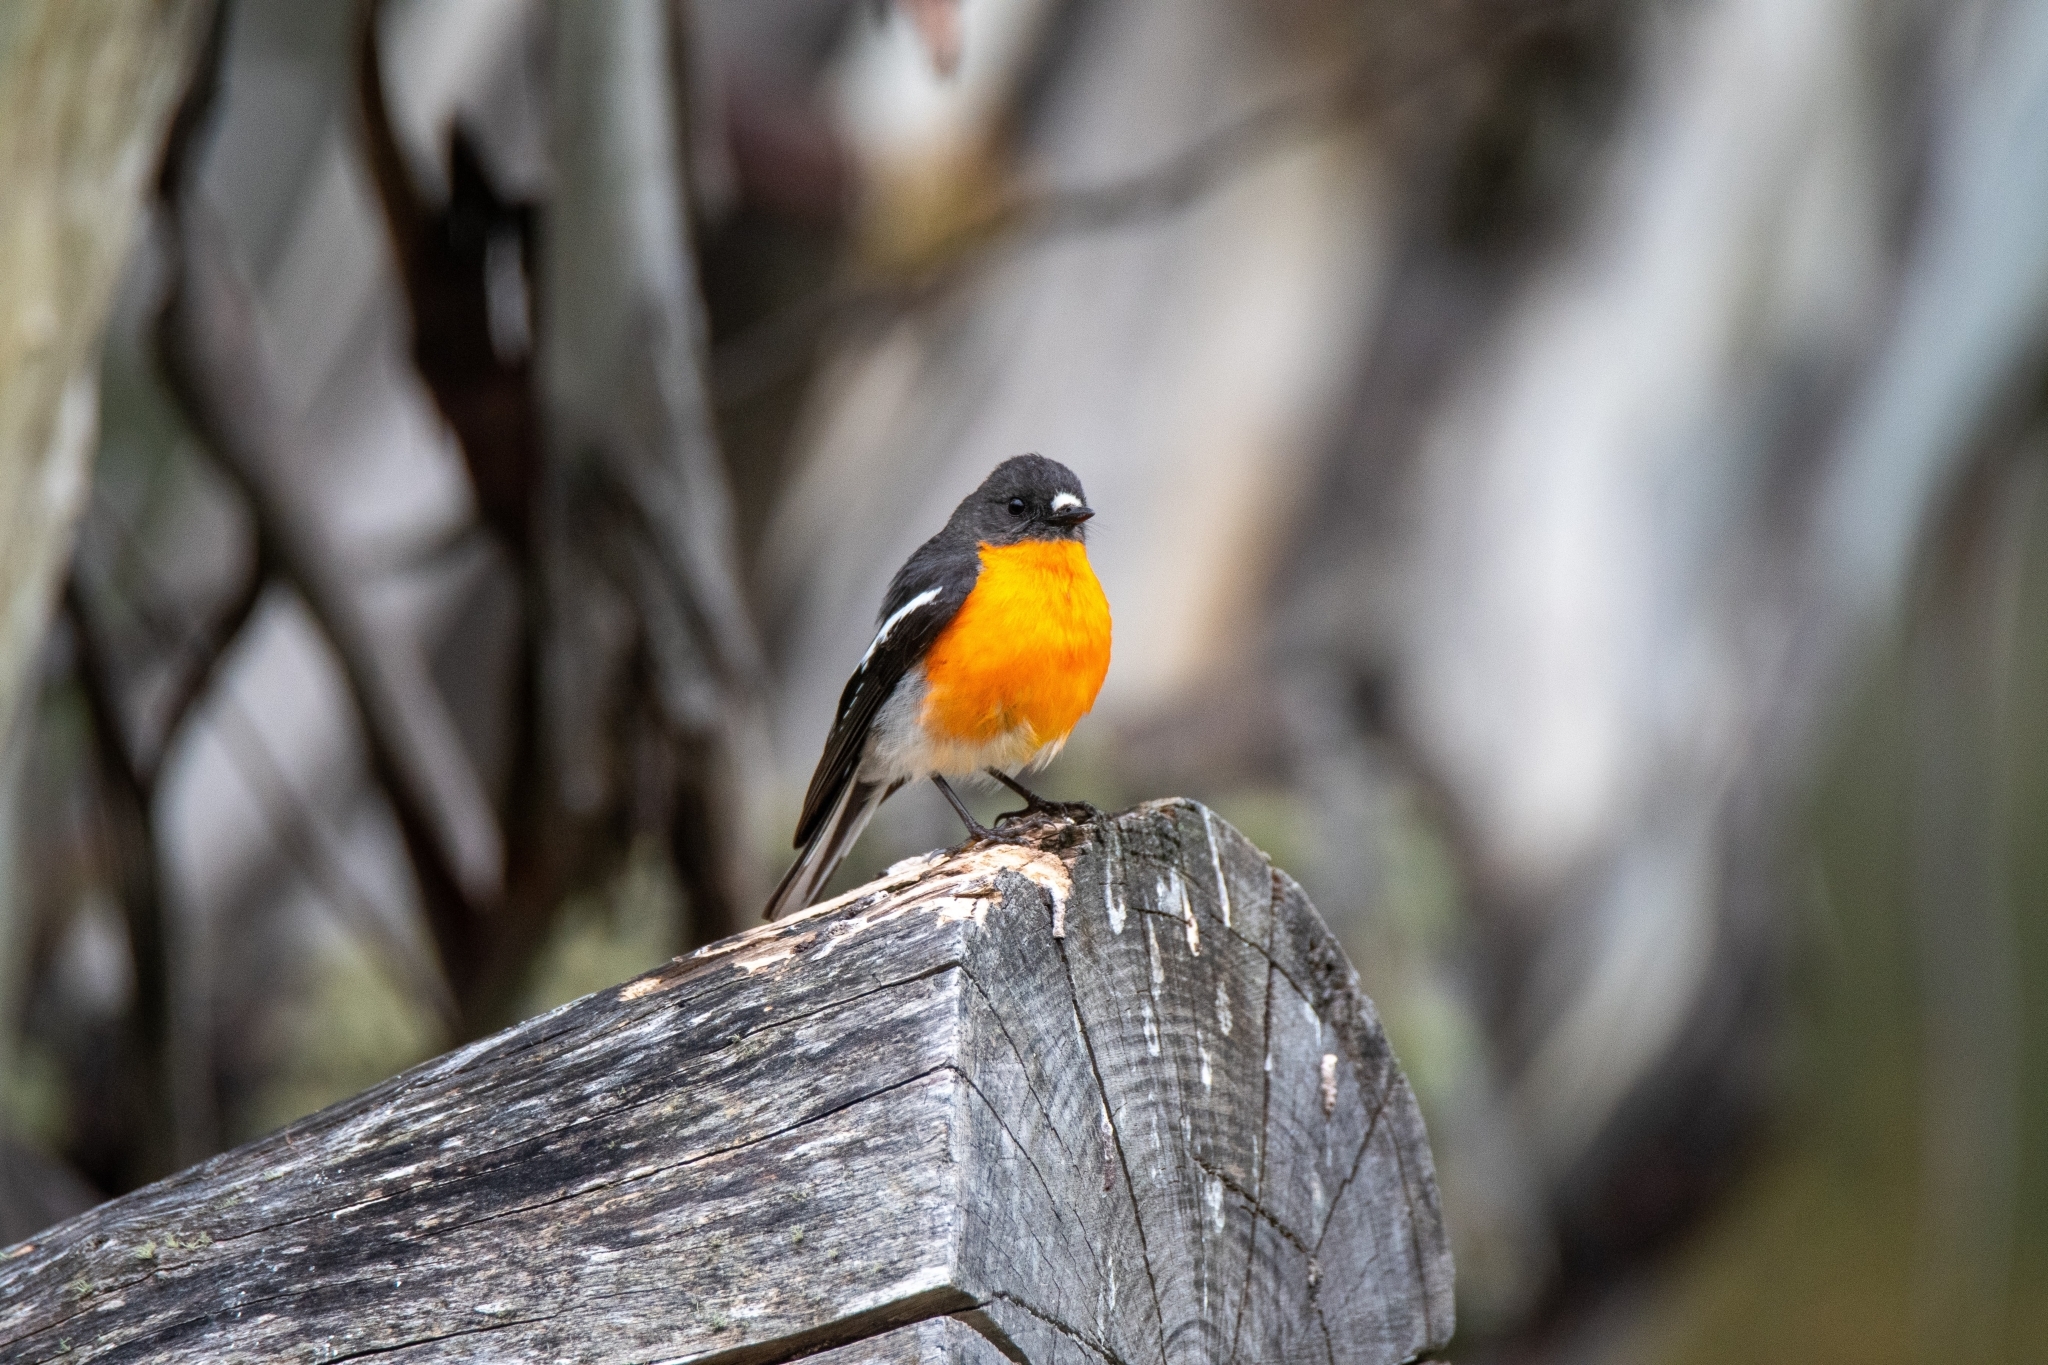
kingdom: Animalia
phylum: Chordata
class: Aves
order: Passeriformes
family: Petroicidae
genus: Petroica
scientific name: Petroica phoenicea
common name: Flame robin
